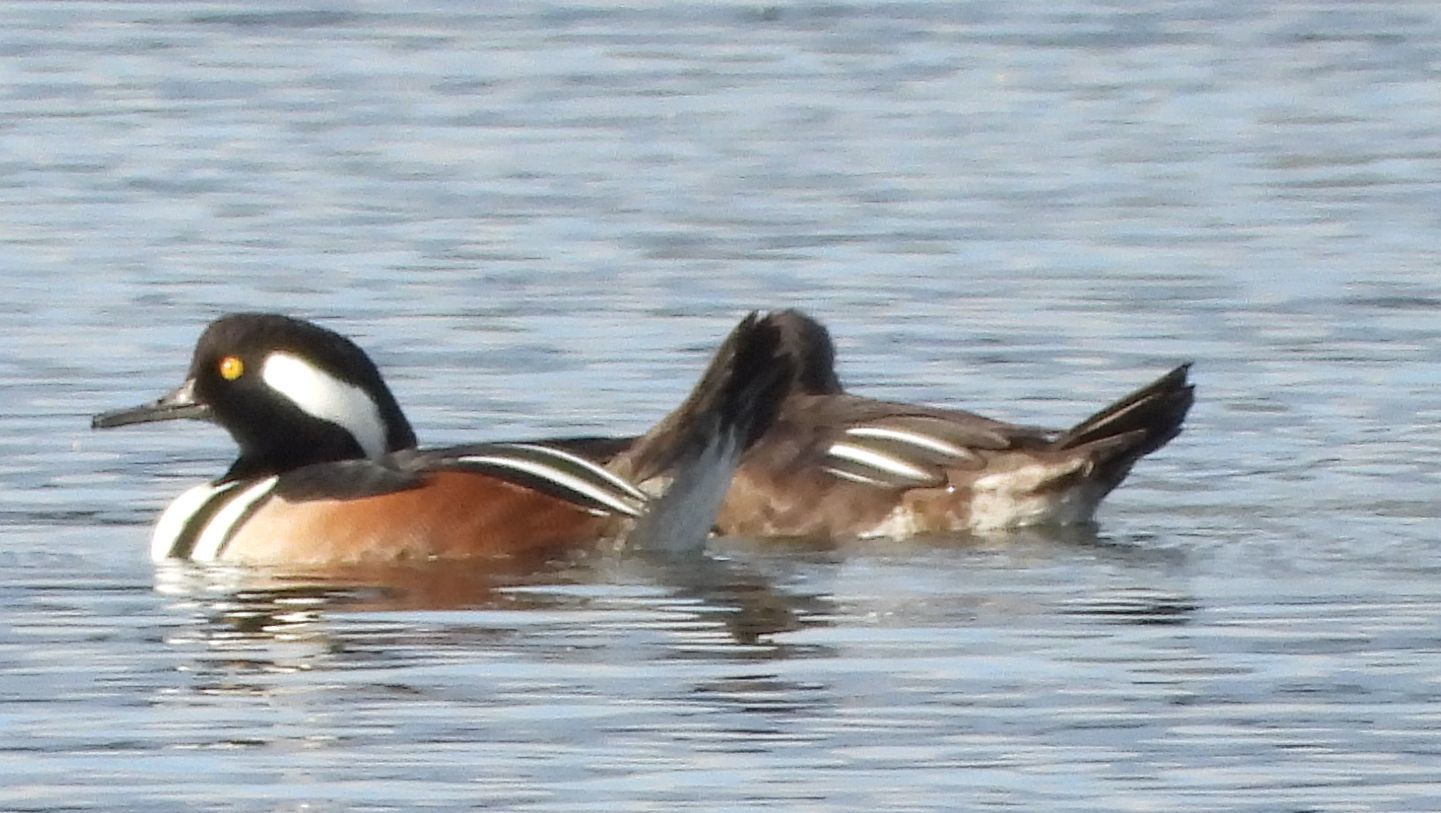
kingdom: Animalia
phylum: Chordata
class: Aves
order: Anseriformes
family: Anatidae
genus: Lophodytes
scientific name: Lophodytes cucullatus
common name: Hooded merganser
